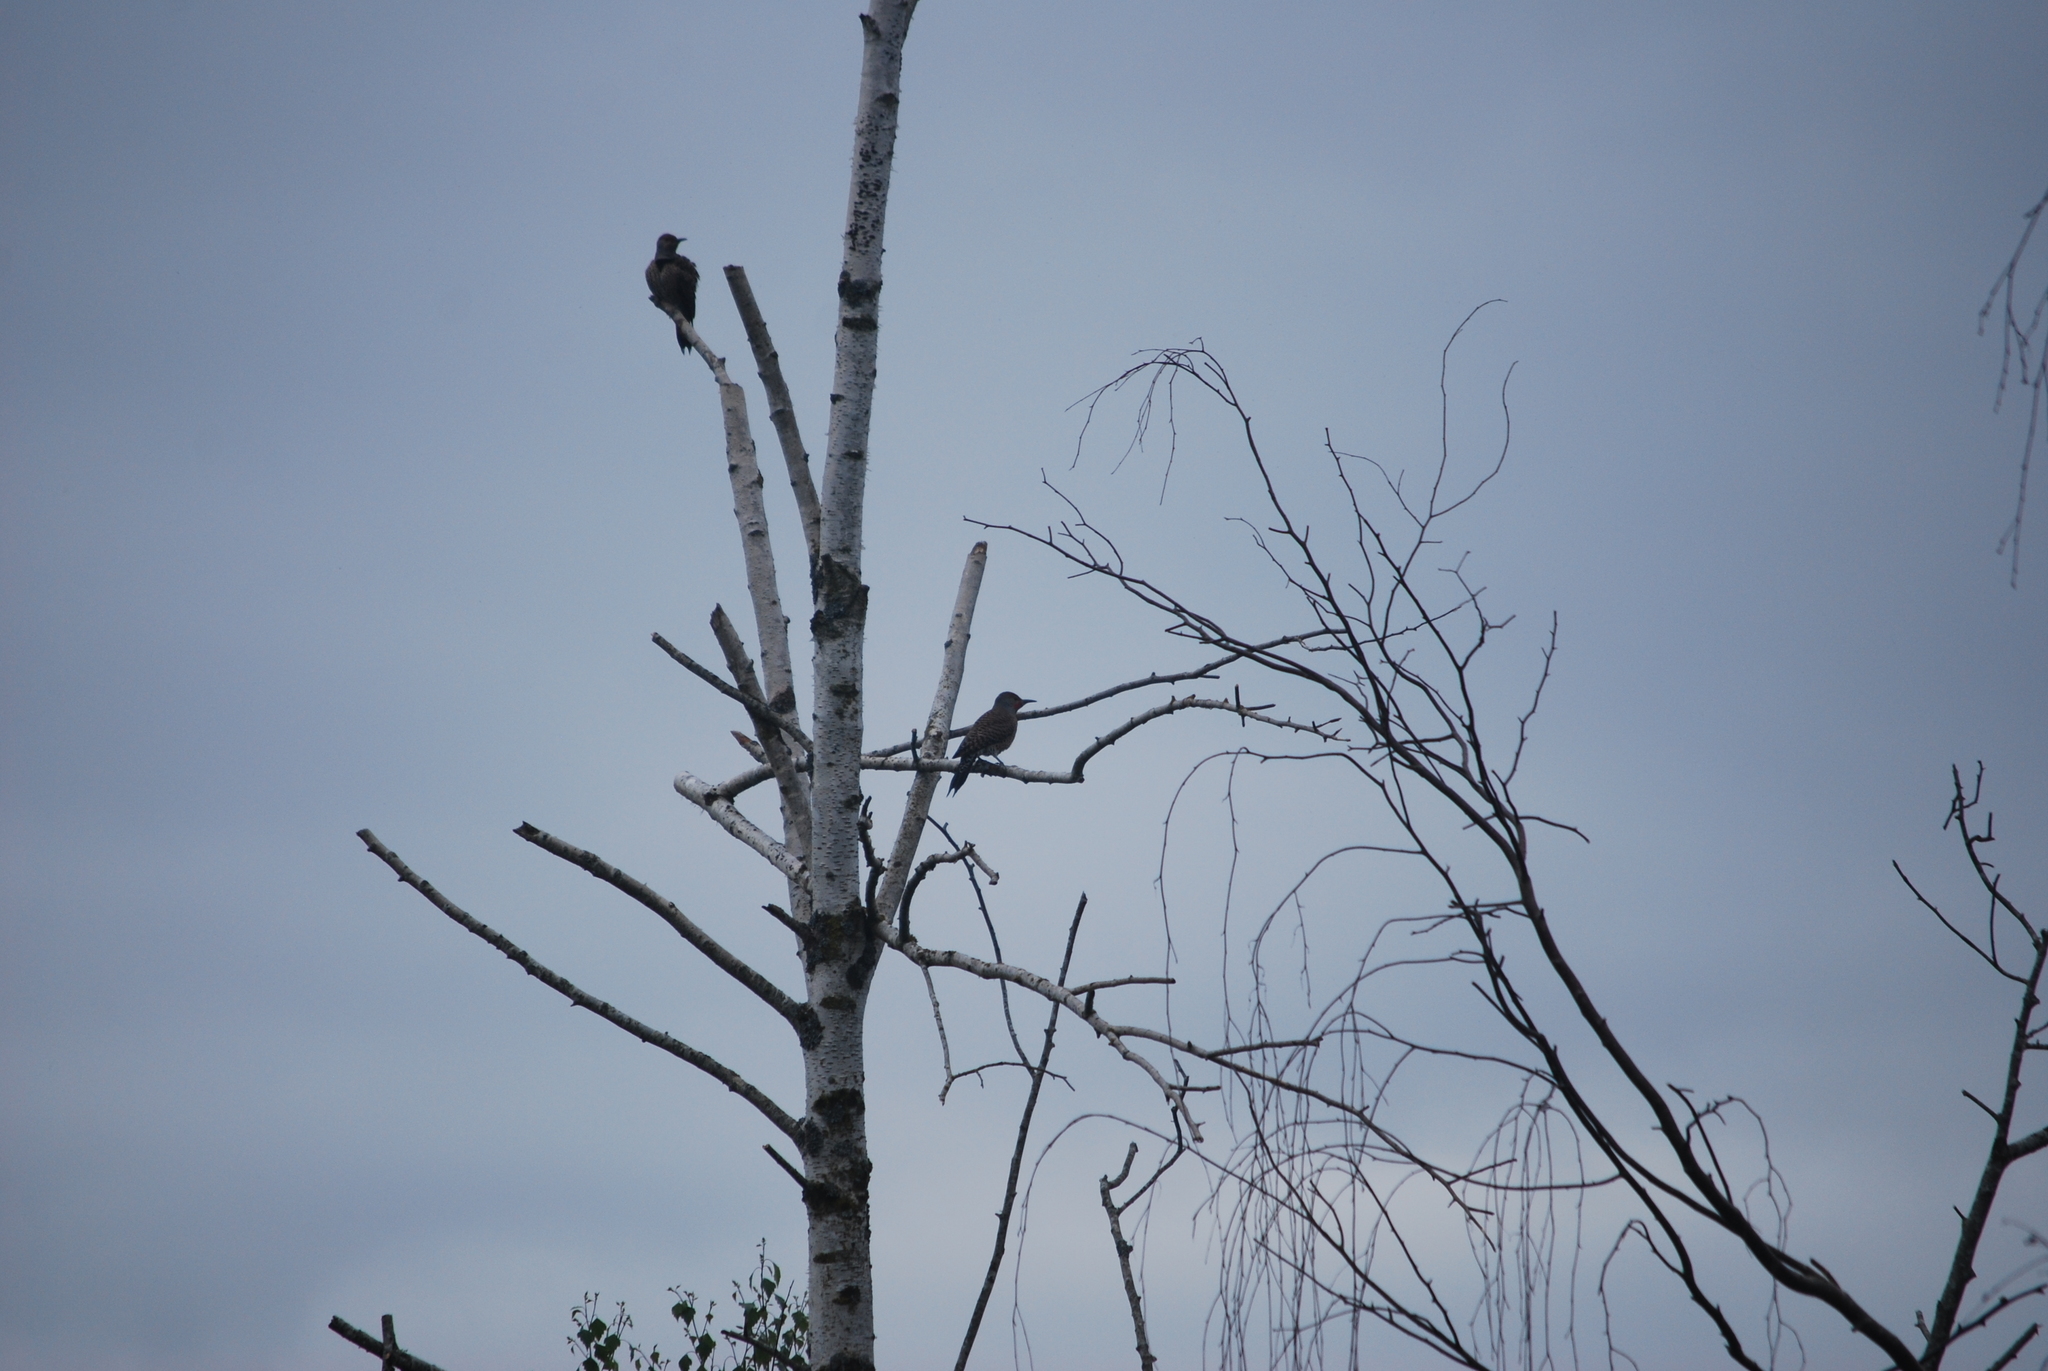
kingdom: Animalia
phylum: Chordata
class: Aves
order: Piciformes
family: Picidae
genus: Colaptes
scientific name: Colaptes auratus
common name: Northern flicker
